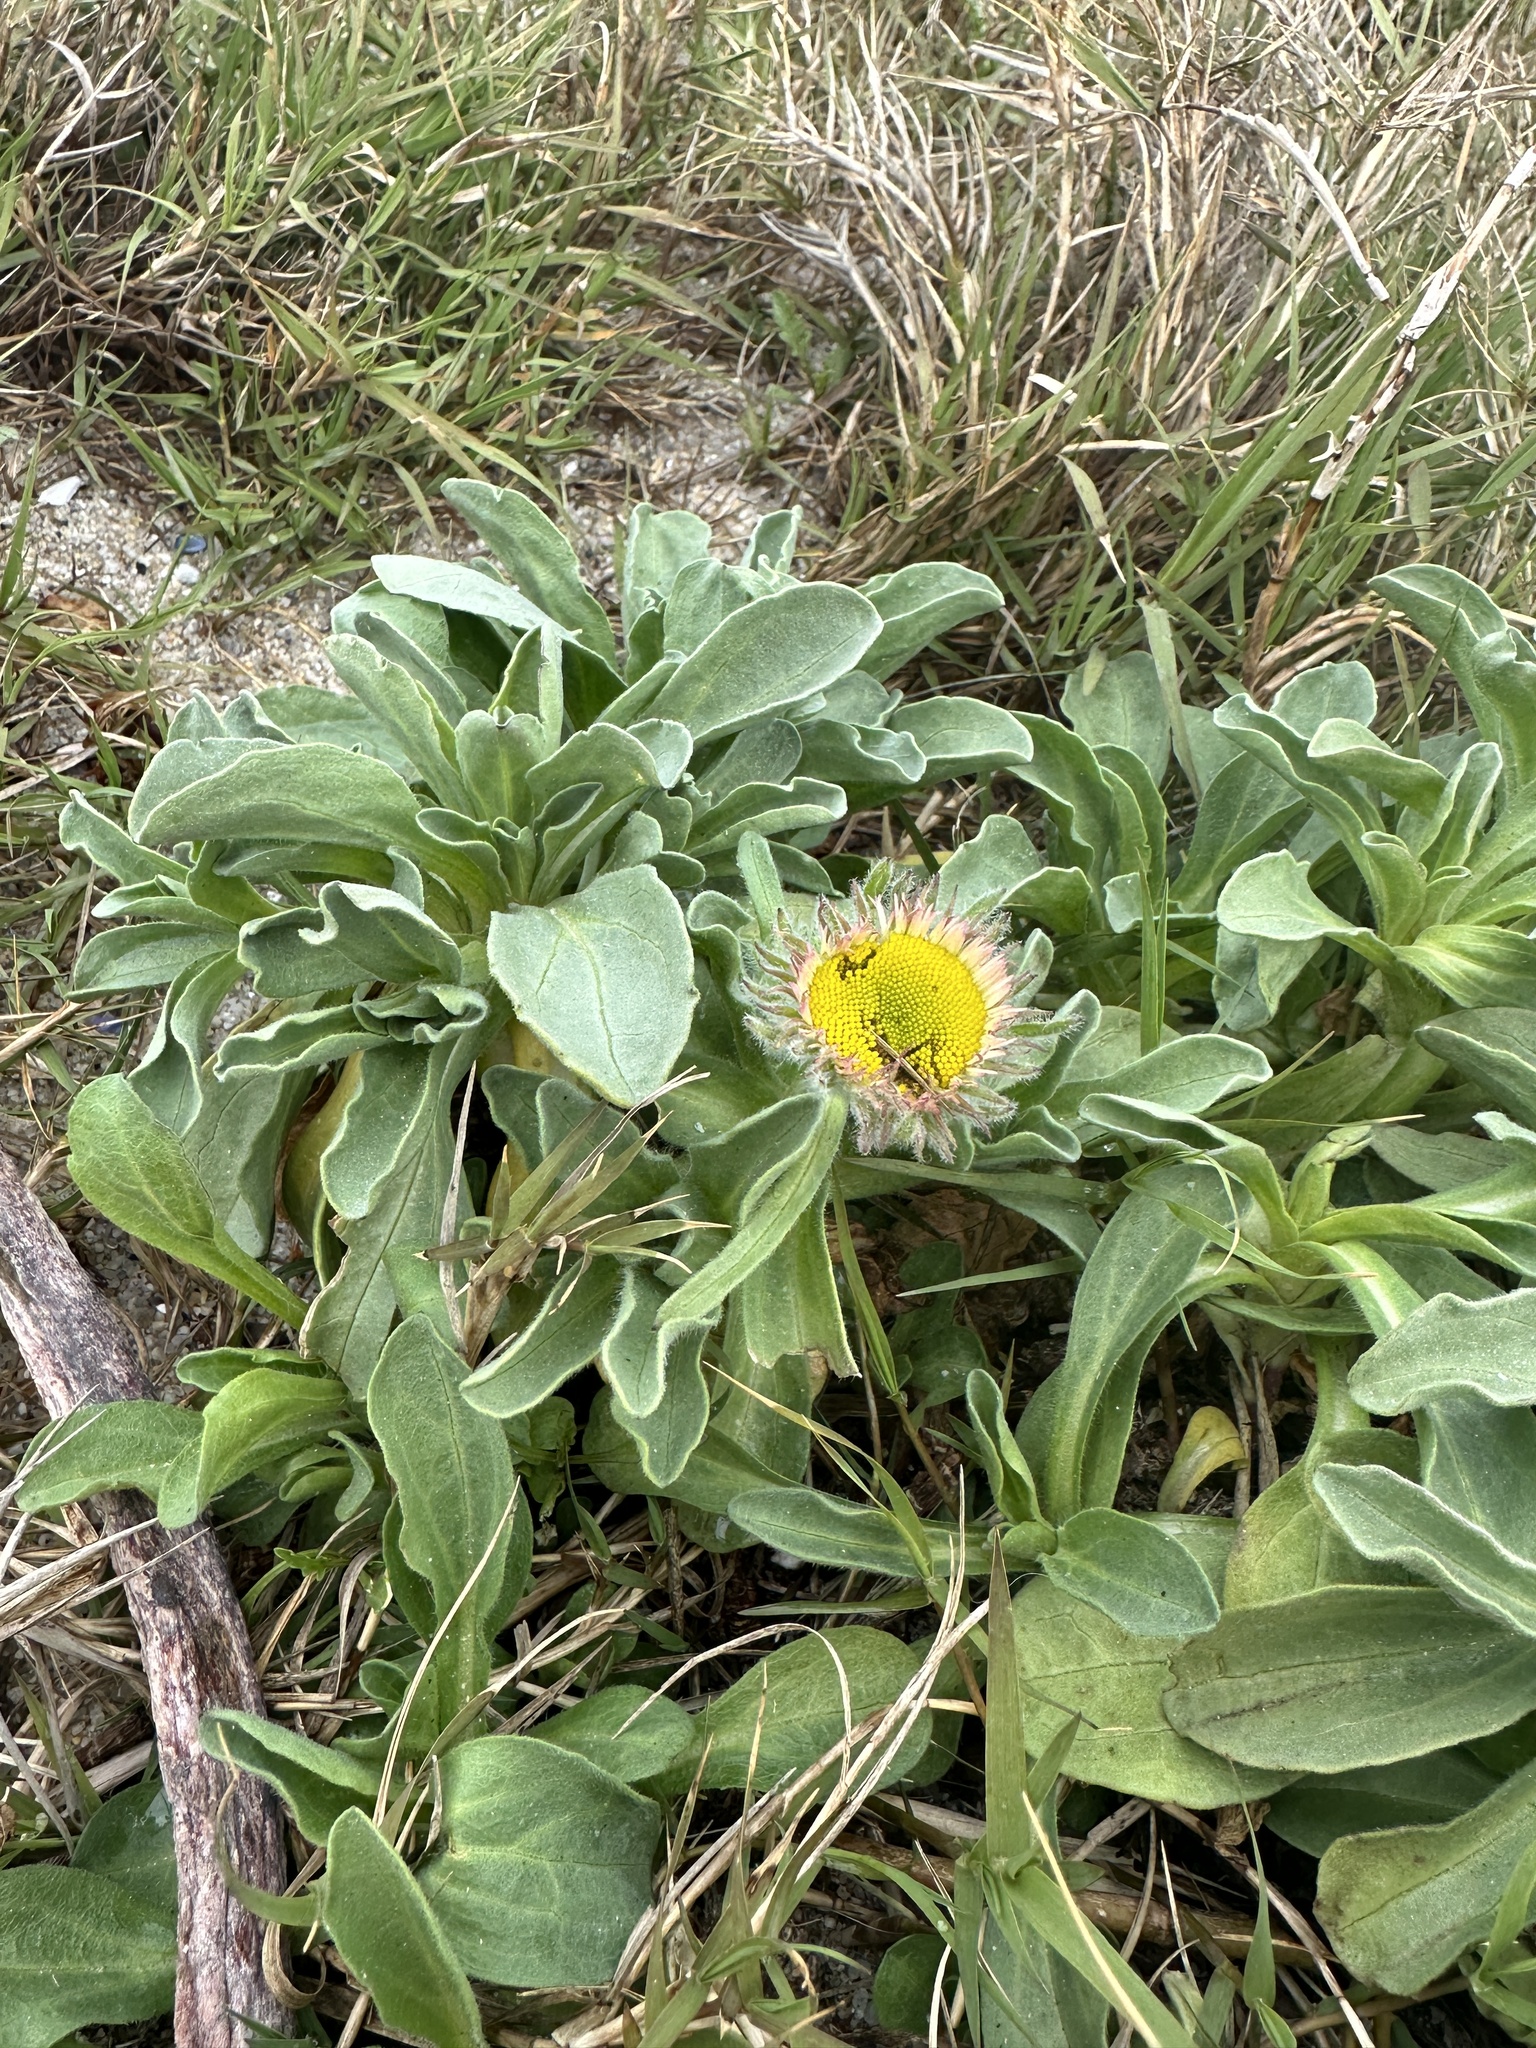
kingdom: Plantae
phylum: Tracheophyta
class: Magnoliopsida
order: Asterales
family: Asteraceae
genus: Erigeron
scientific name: Erigeron glaucus
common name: Seaside daisy
